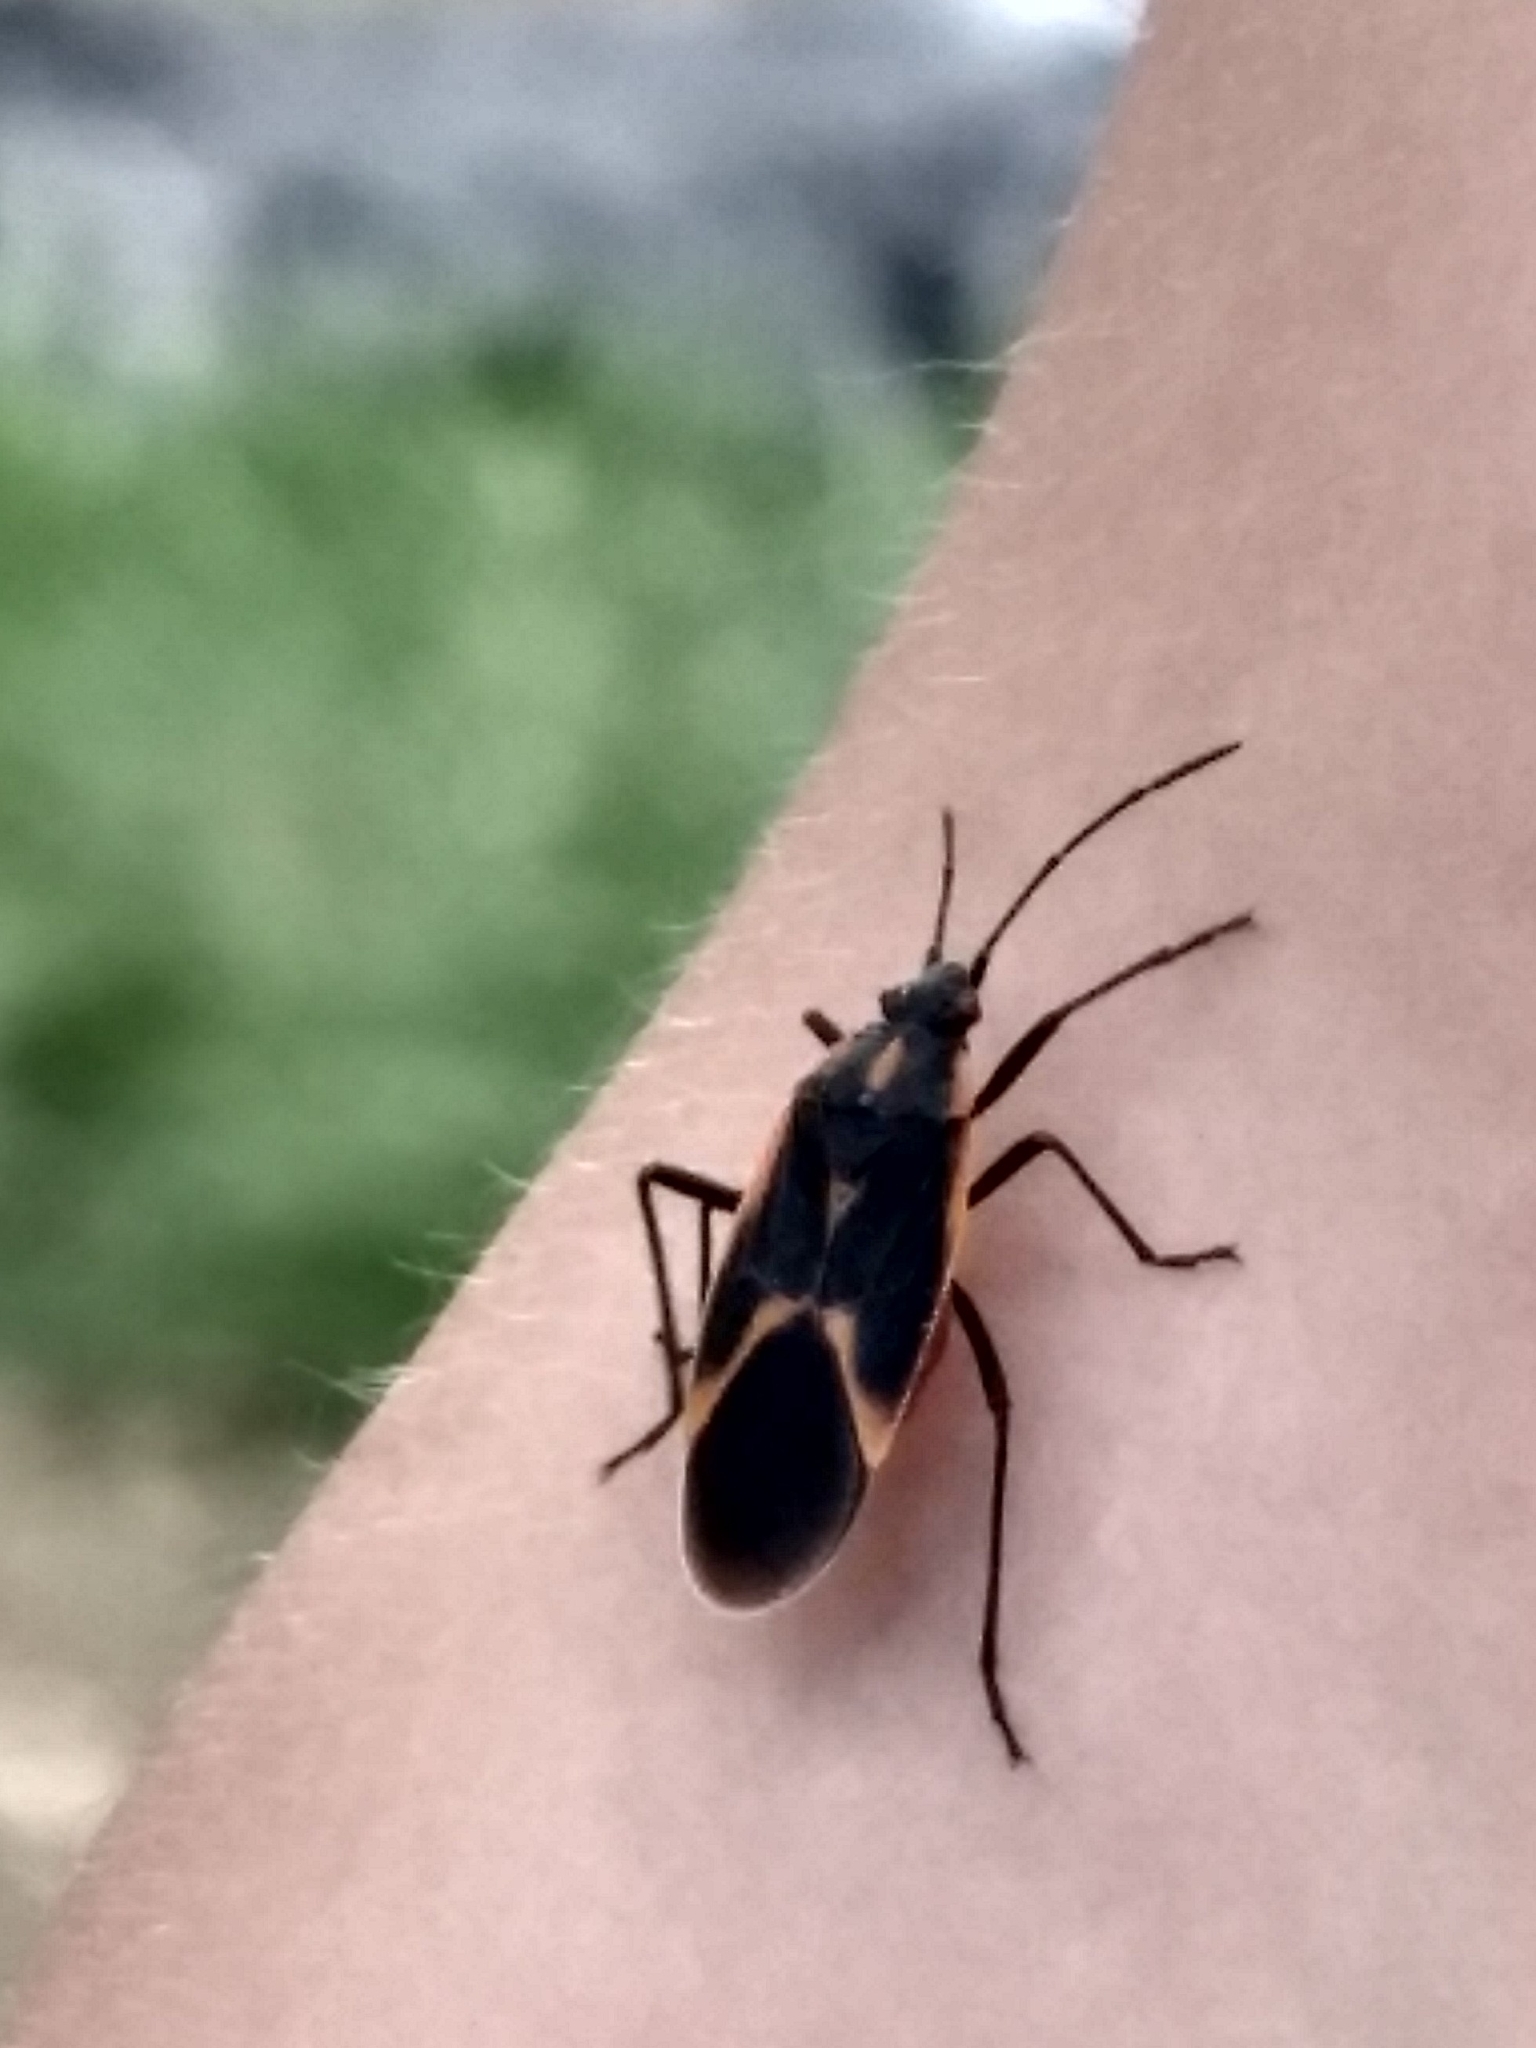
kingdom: Animalia
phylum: Arthropoda
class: Insecta
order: Hemiptera
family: Rhopalidae
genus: Boisea
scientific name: Boisea trivittata
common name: Boxelder bug
